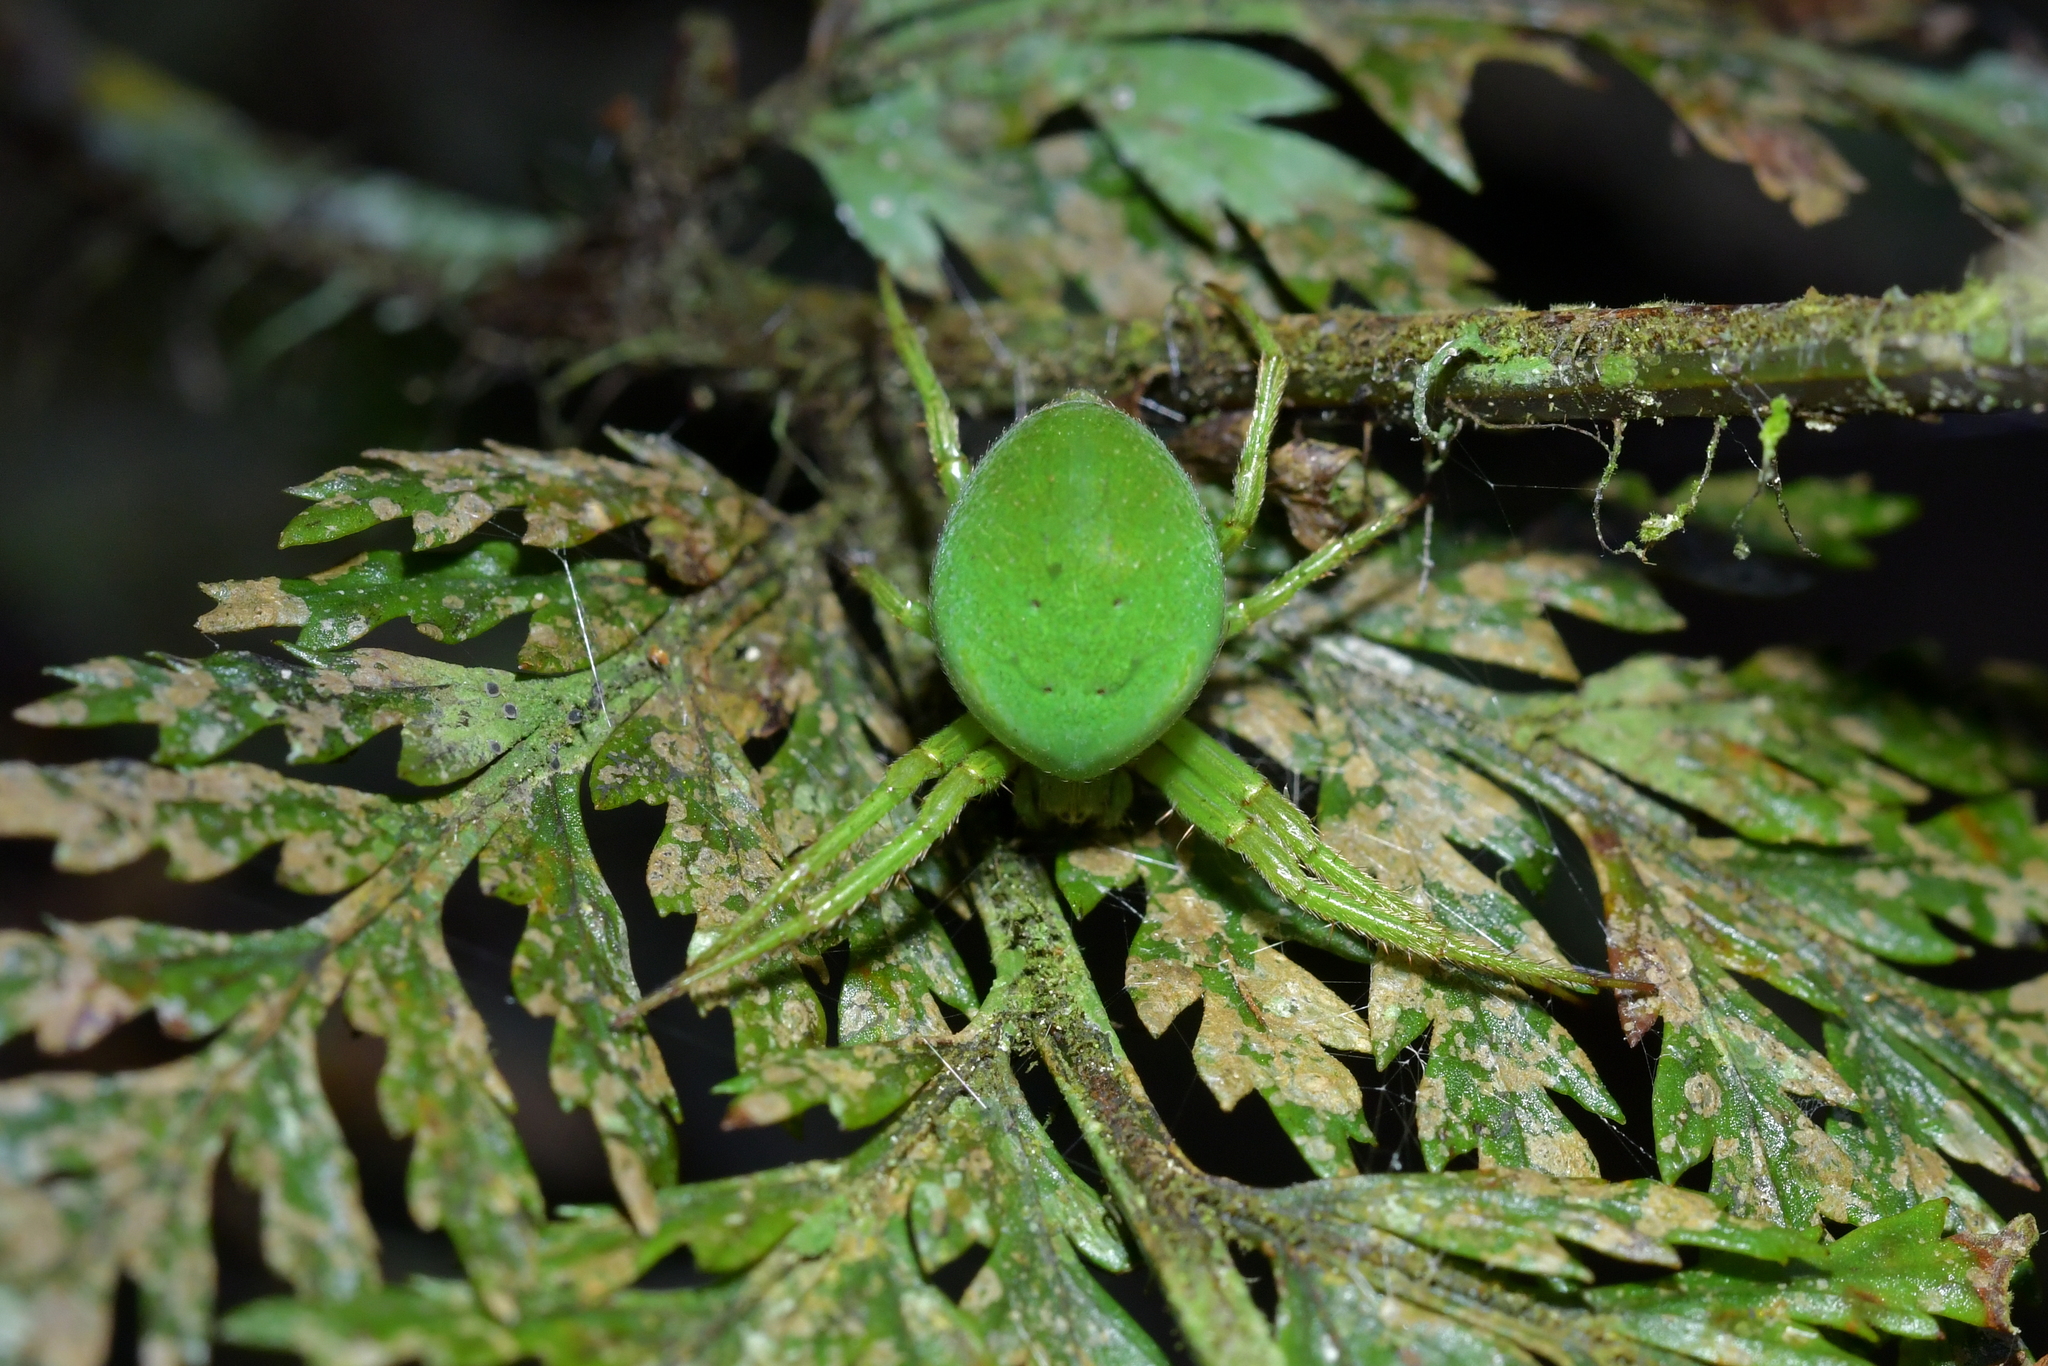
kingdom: Animalia
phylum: Arthropoda
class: Arachnida
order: Araneae
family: Araneidae
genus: Colaranea
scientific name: Colaranea viriditas
